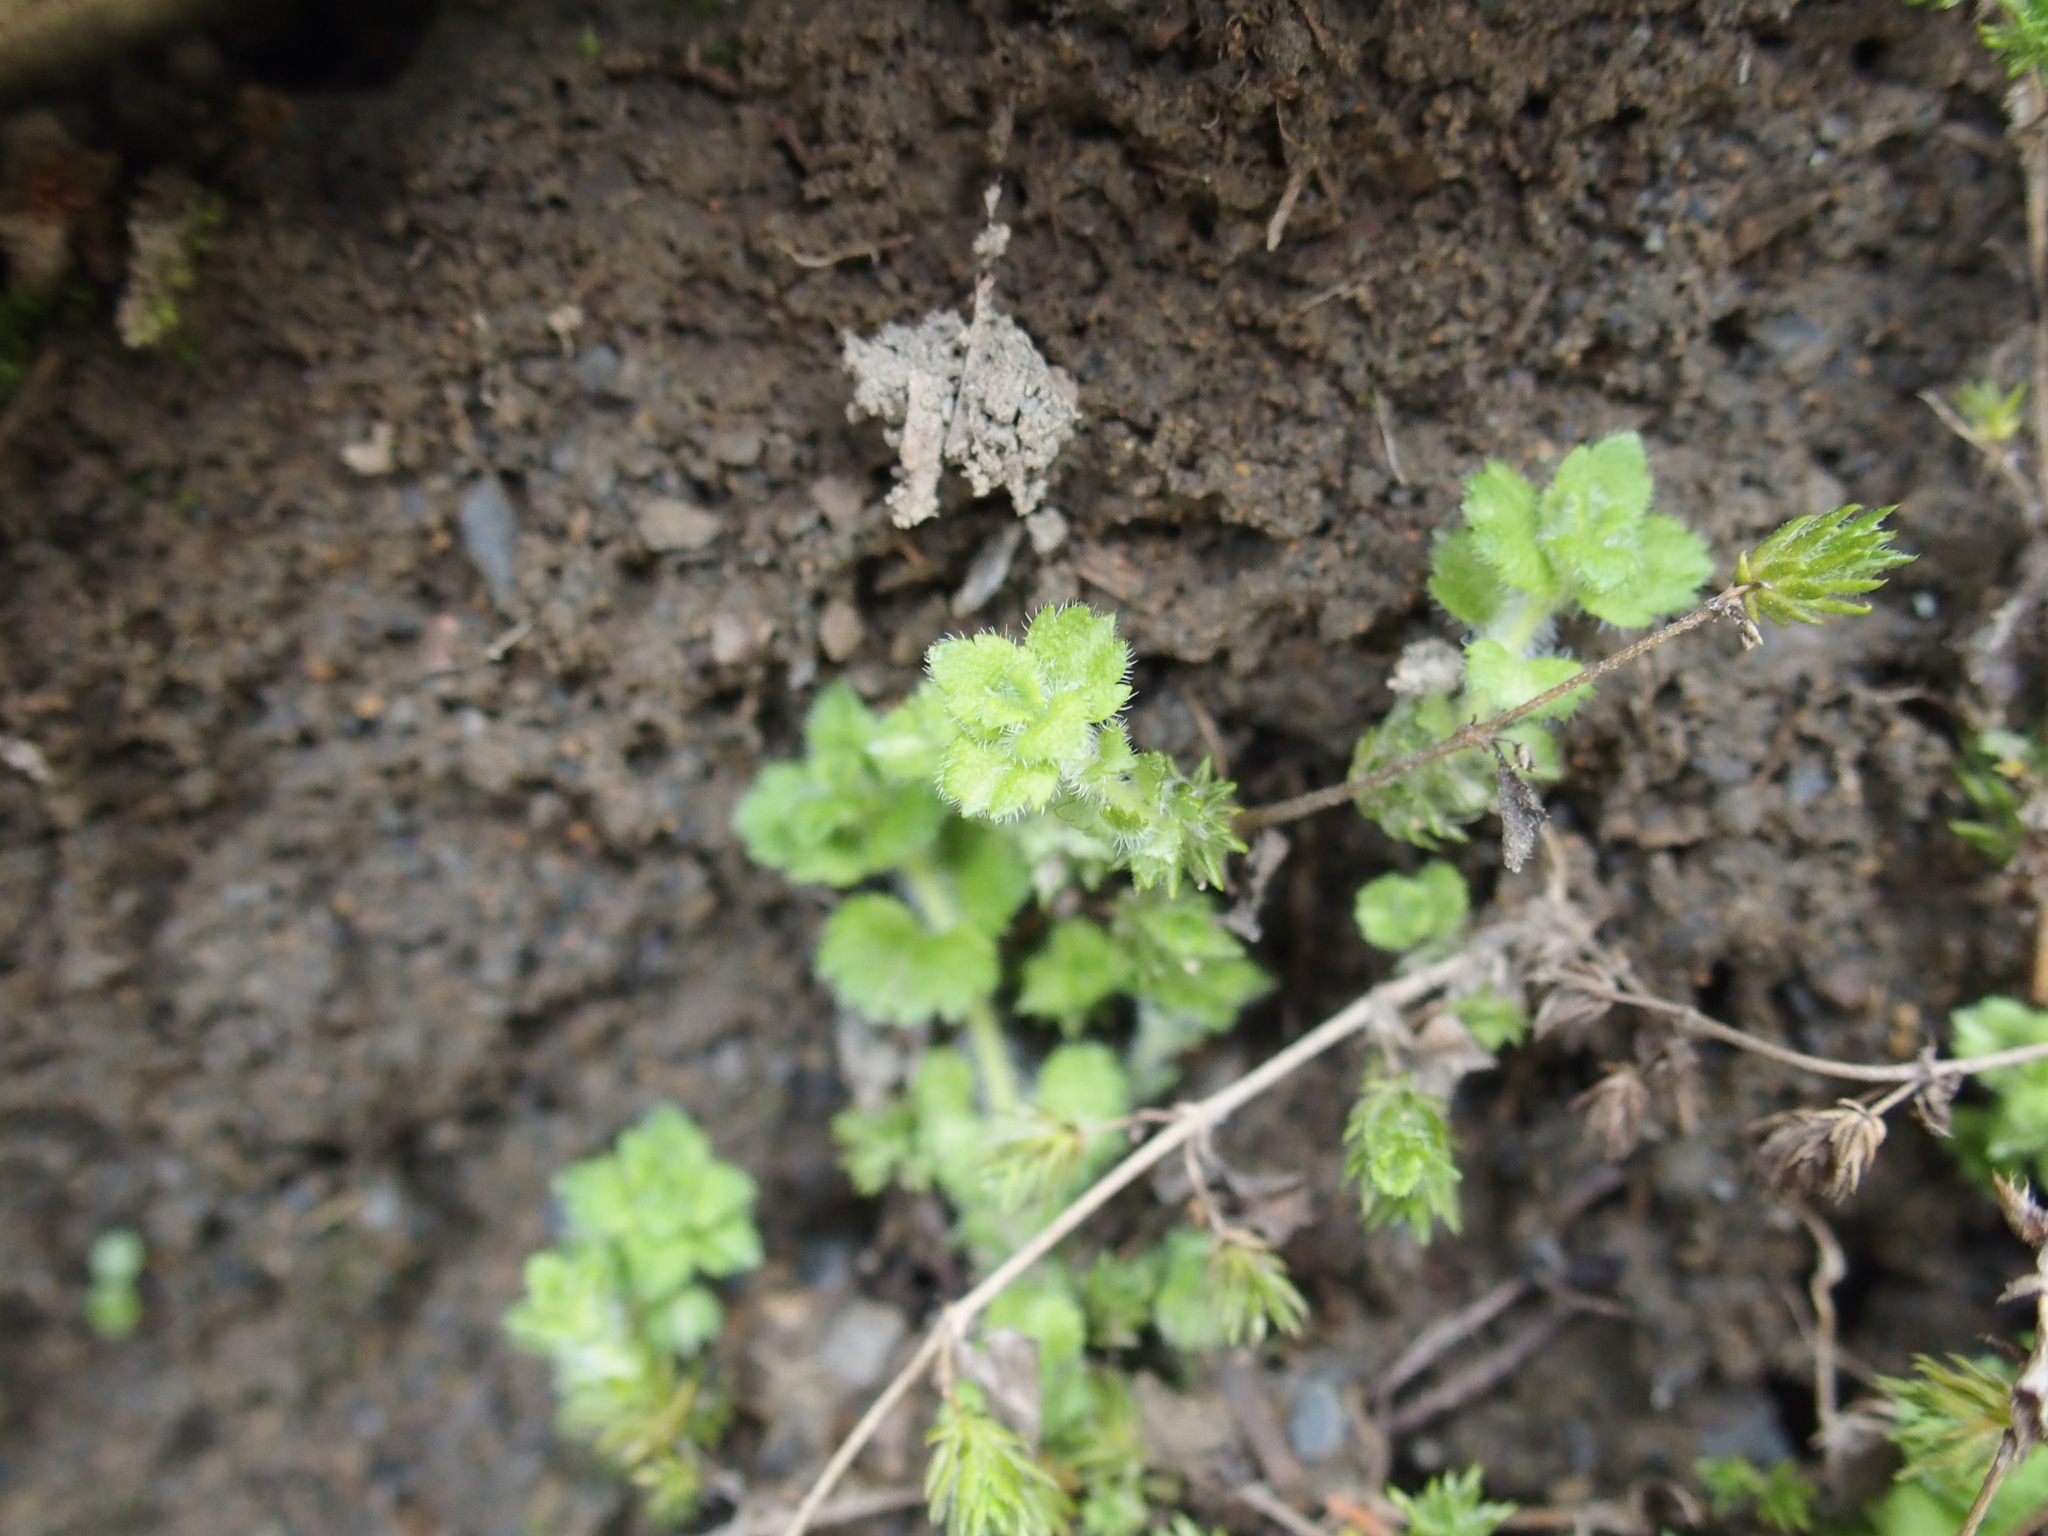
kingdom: Plantae
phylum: Tracheophyta
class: Magnoliopsida
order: Lamiales
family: Plantaginaceae
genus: Hemiphragma
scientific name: Hemiphragma heterophyllum
